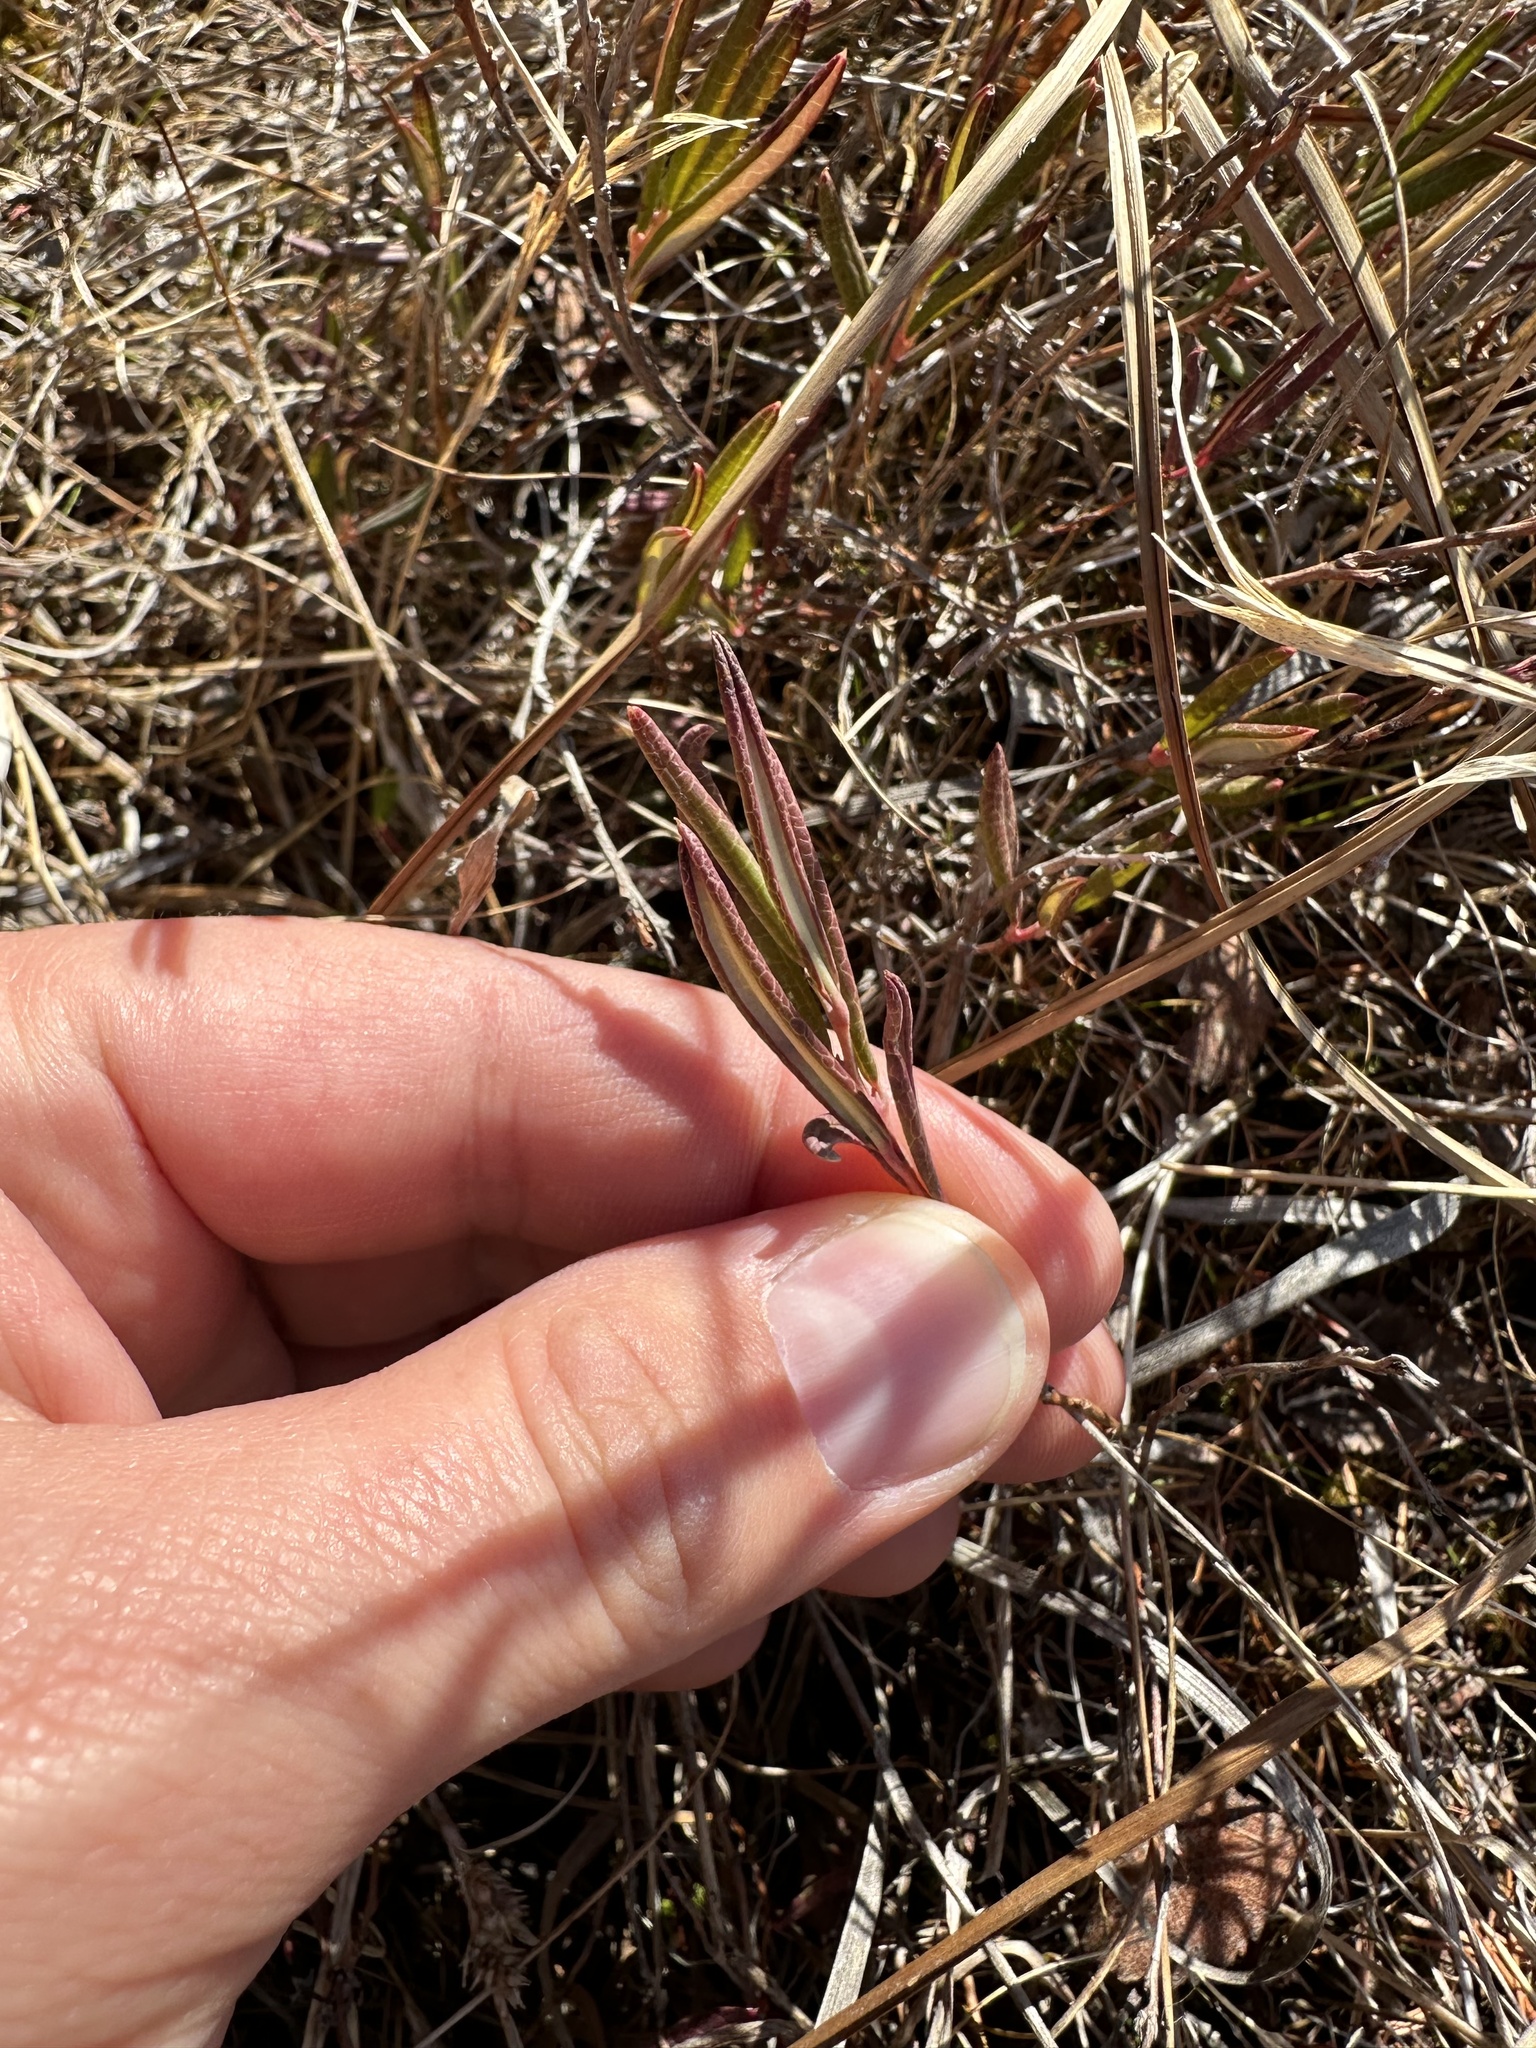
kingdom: Plantae
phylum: Tracheophyta
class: Magnoliopsida
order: Ericales
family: Ericaceae
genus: Andromeda
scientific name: Andromeda polifolia
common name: Bog-rosemary
